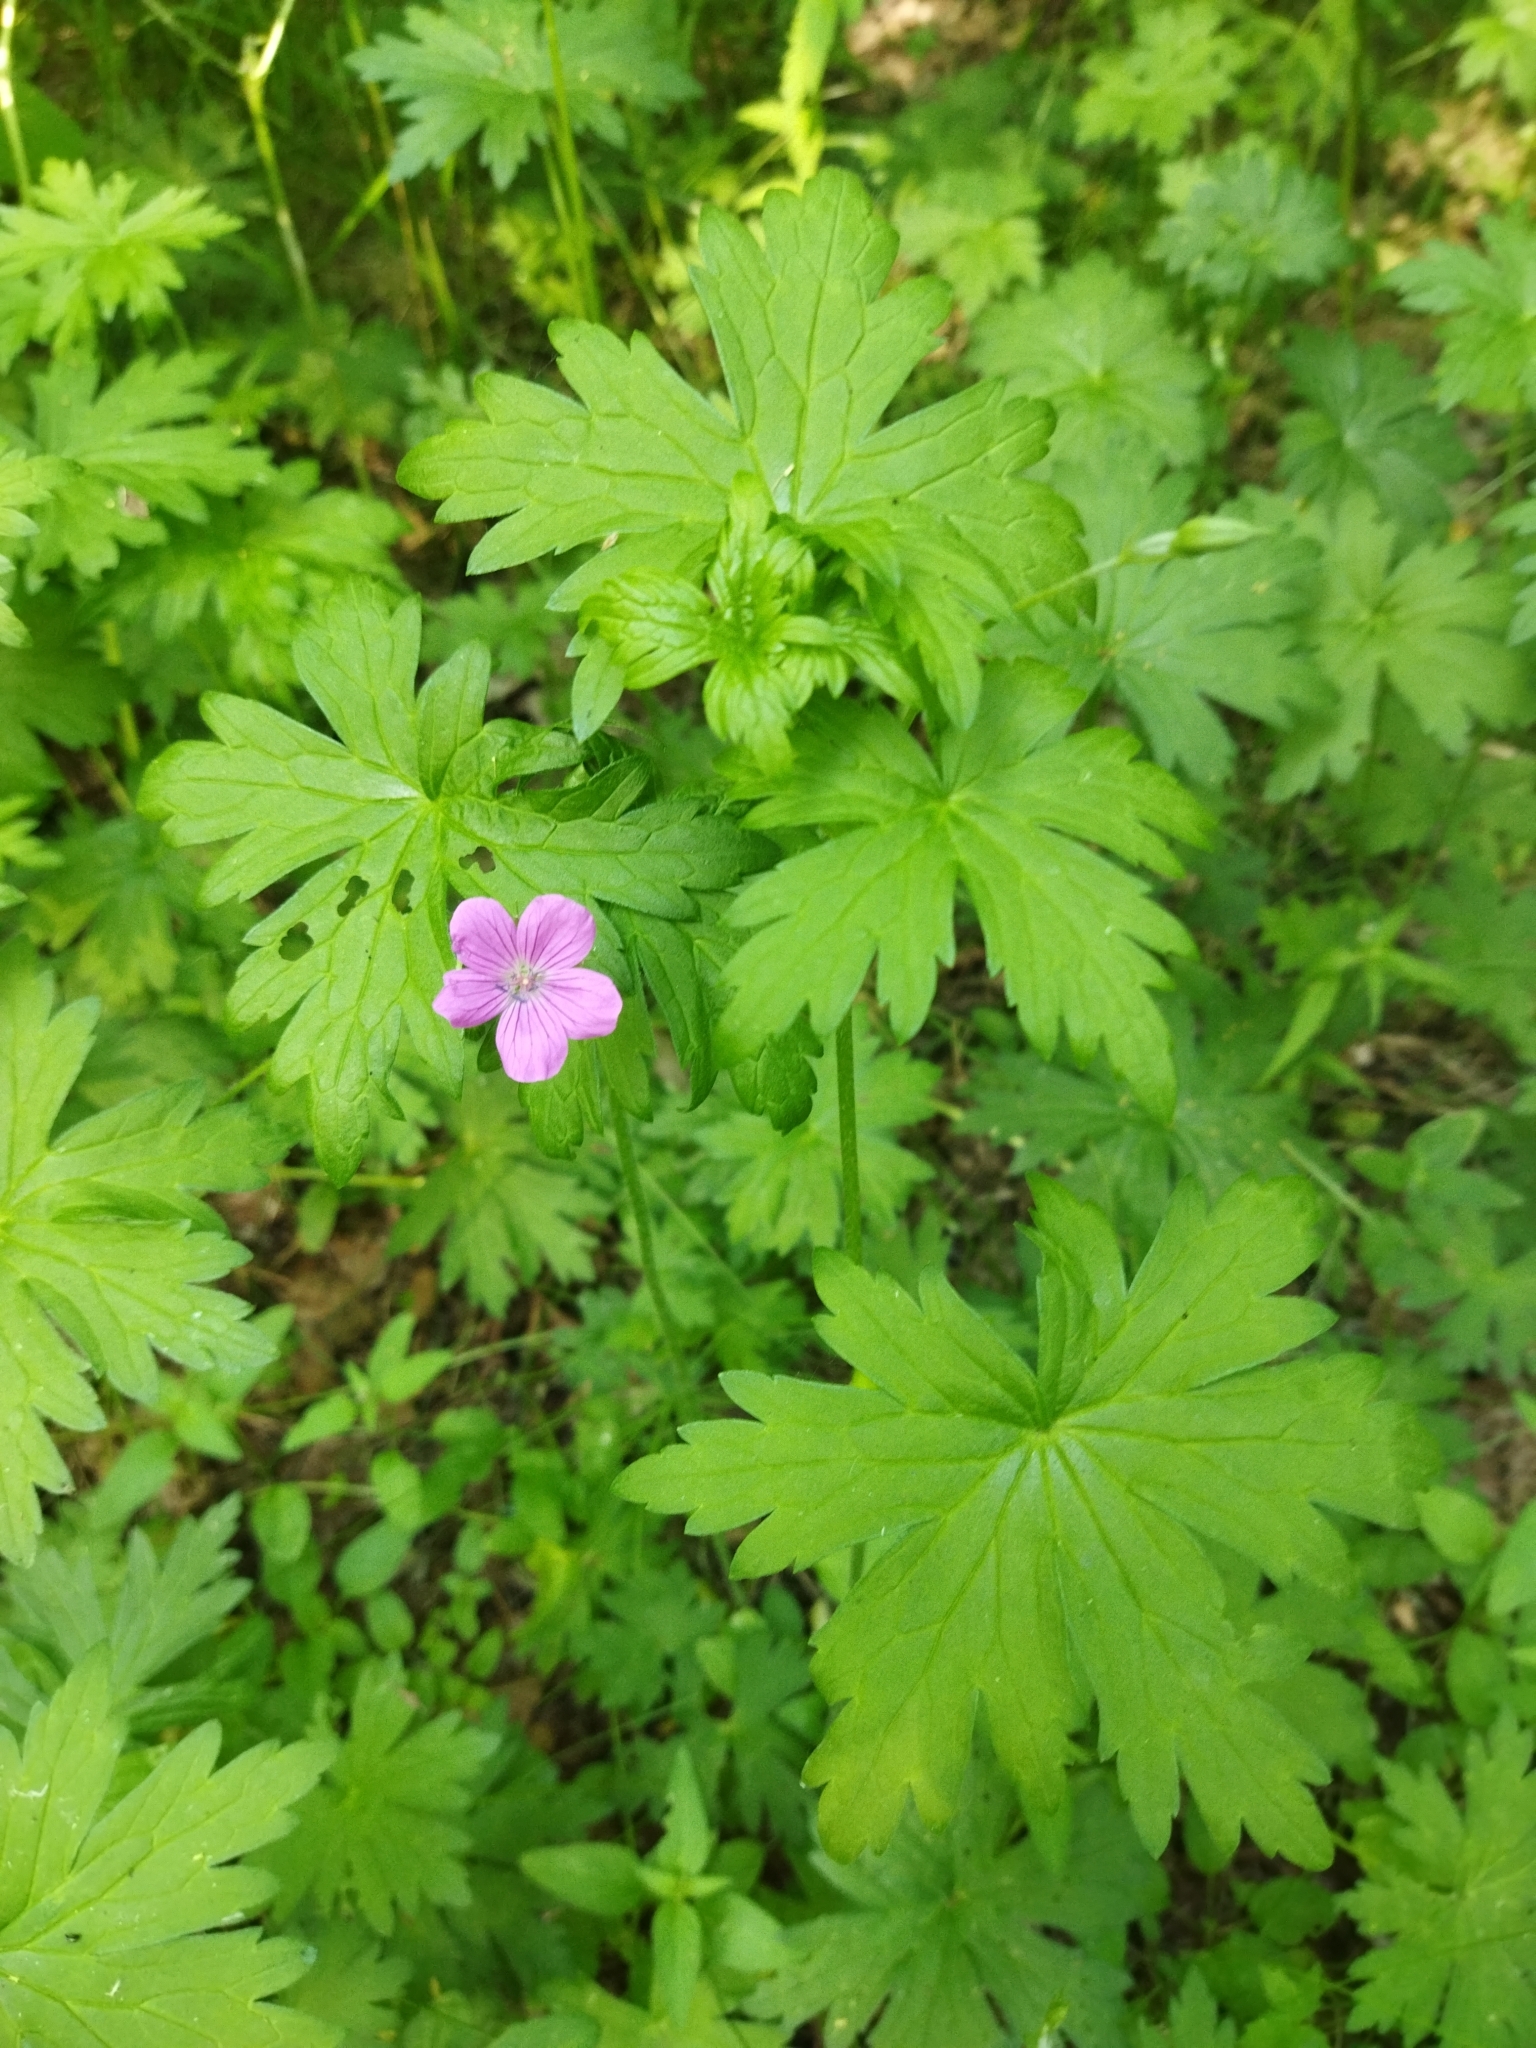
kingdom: Plantae
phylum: Tracheophyta
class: Magnoliopsida
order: Geraniales
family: Geraniaceae
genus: Geranium
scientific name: Geranium palustre
